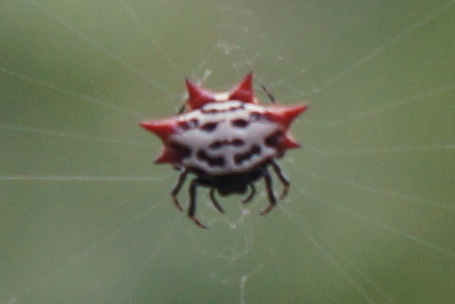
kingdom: Animalia
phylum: Arthropoda
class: Arachnida
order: Araneae
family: Araneidae
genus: Gasteracantha
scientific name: Gasteracantha cancriformis
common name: Orb weavers
